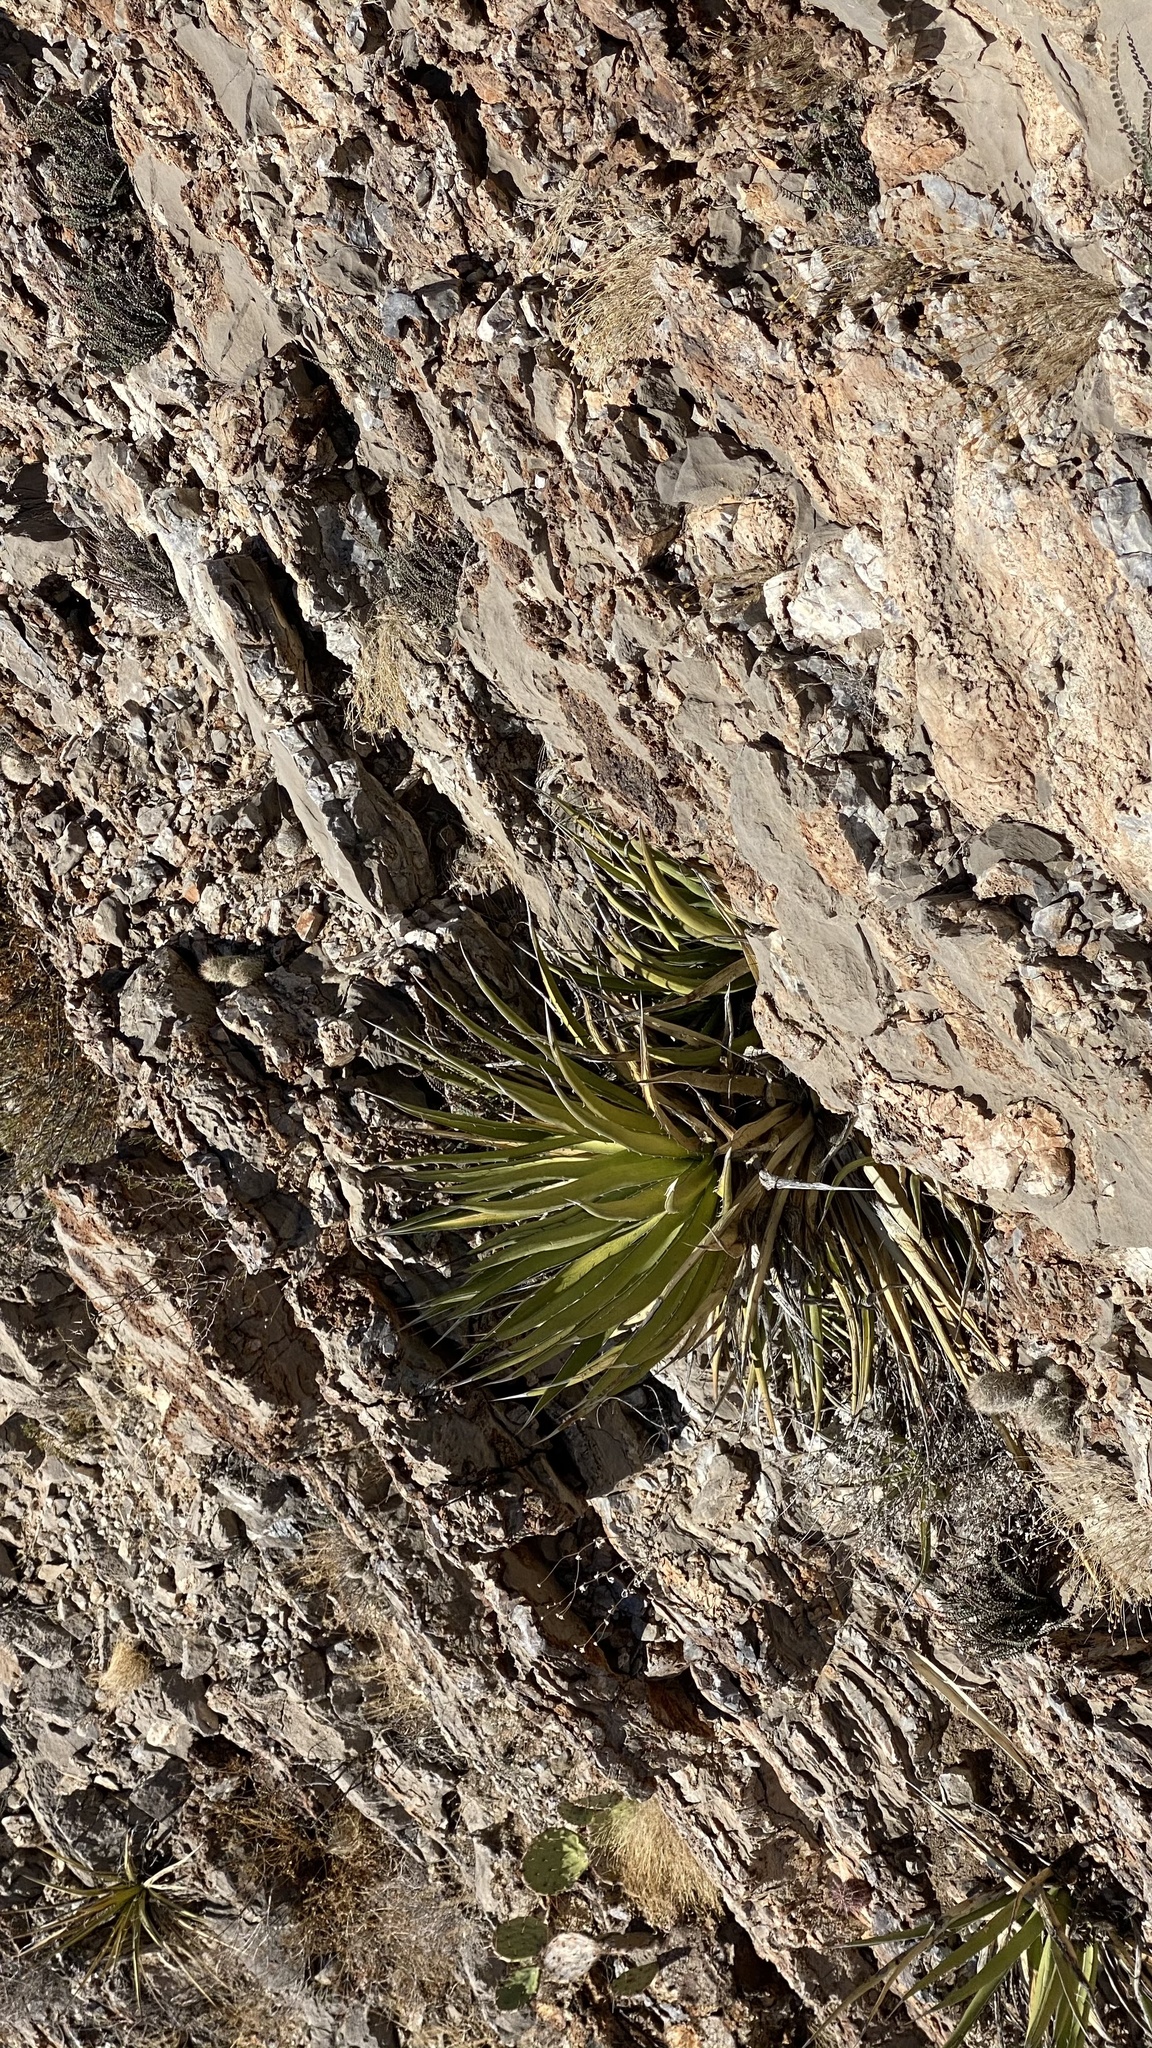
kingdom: Plantae
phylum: Tracheophyta
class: Liliopsida
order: Asparagales
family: Asparagaceae
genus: Agave
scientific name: Agave lechuguilla
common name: Lecheguilla agave
